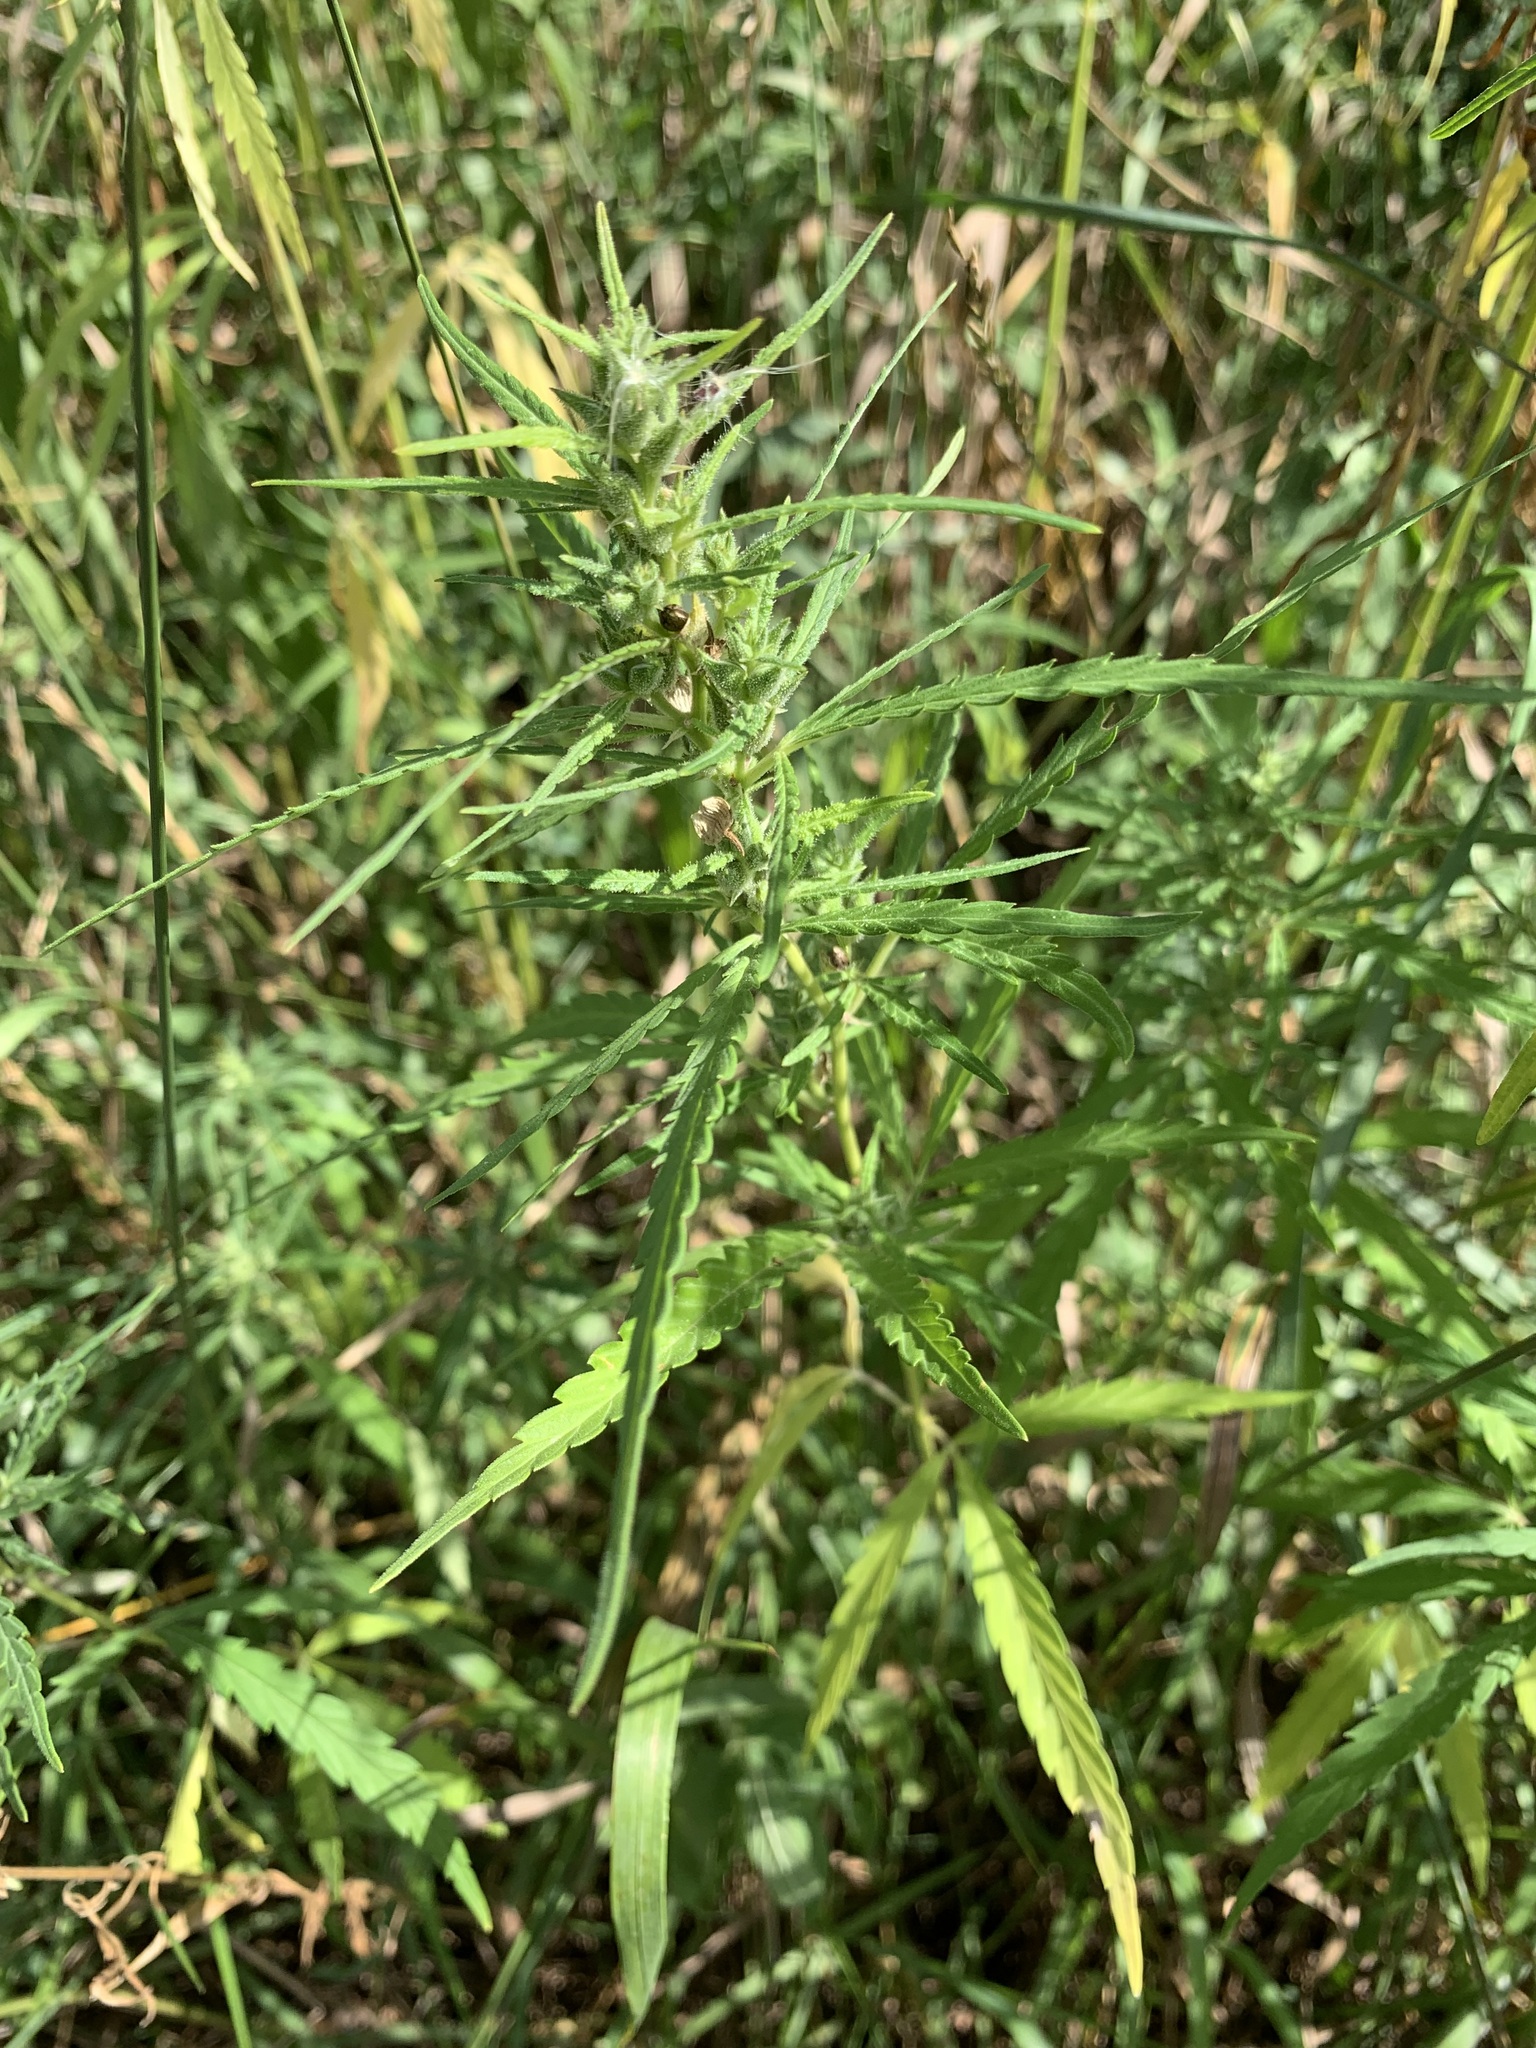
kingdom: Plantae
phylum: Tracheophyta
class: Magnoliopsida
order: Rosales
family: Cannabaceae
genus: Cannabis
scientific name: Cannabis sativa
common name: Hemp
